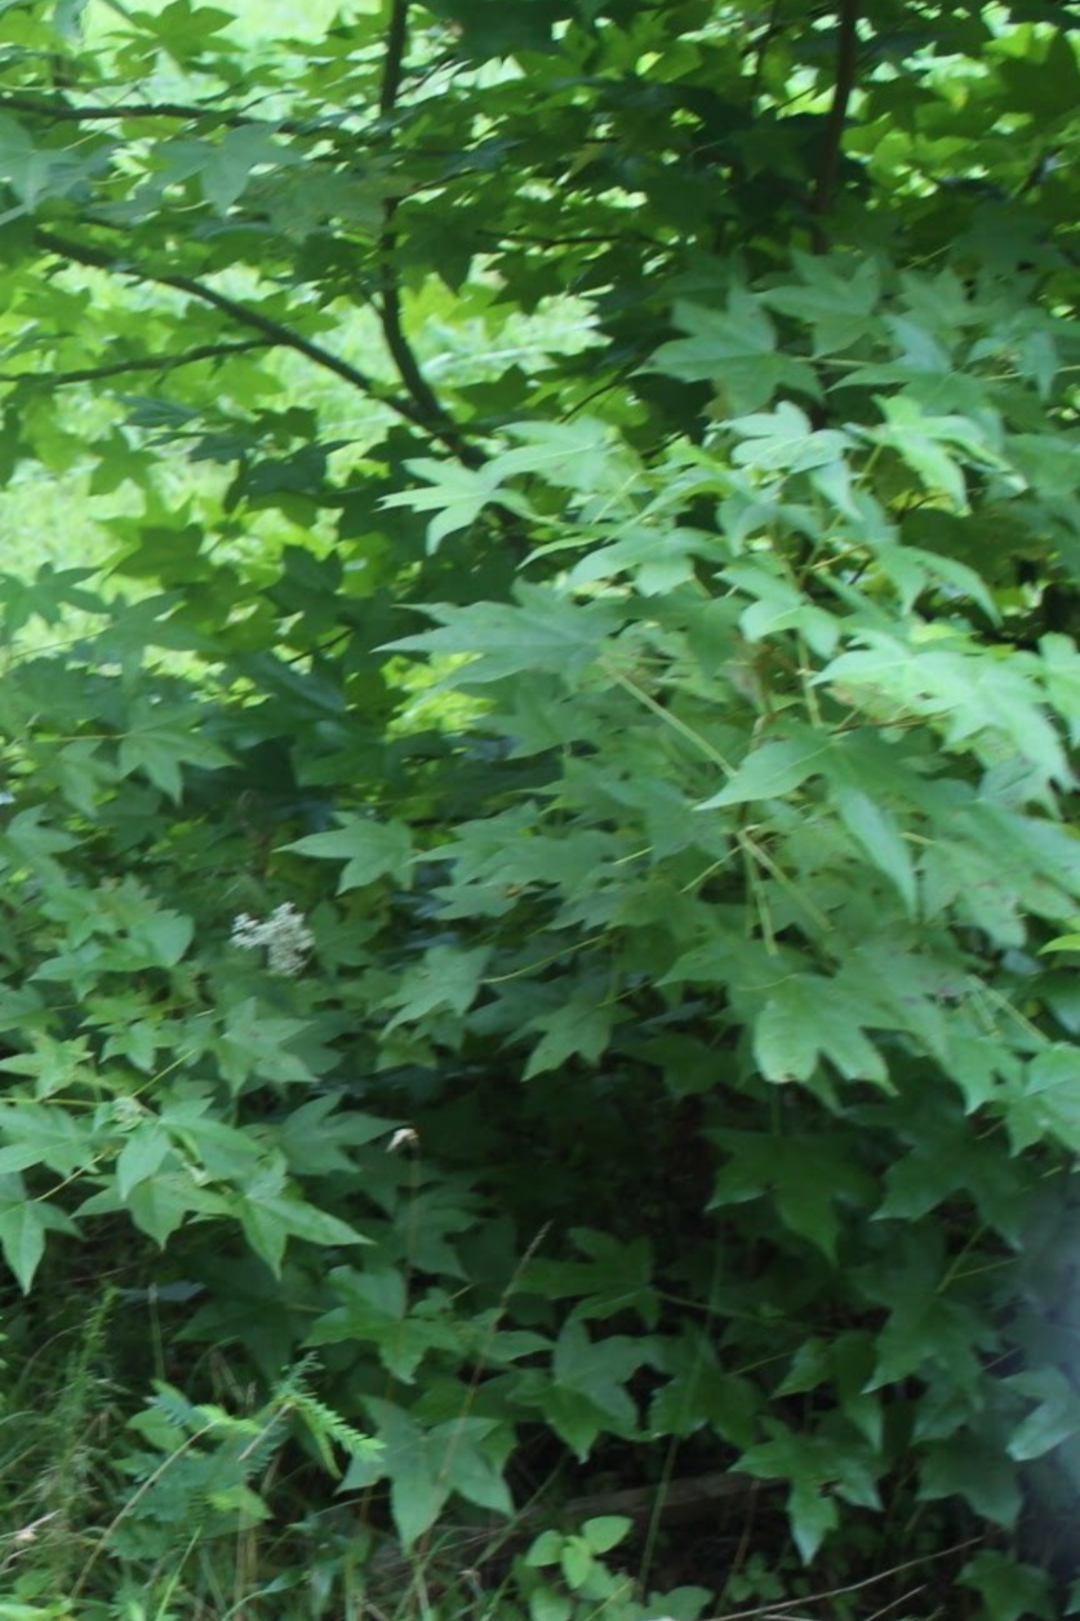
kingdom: Plantae
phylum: Tracheophyta
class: Magnoliopsida
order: Saxifragales
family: Altingiaceae
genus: Liquidambar
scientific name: Liquidambar styraciflua
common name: Sweet gum
